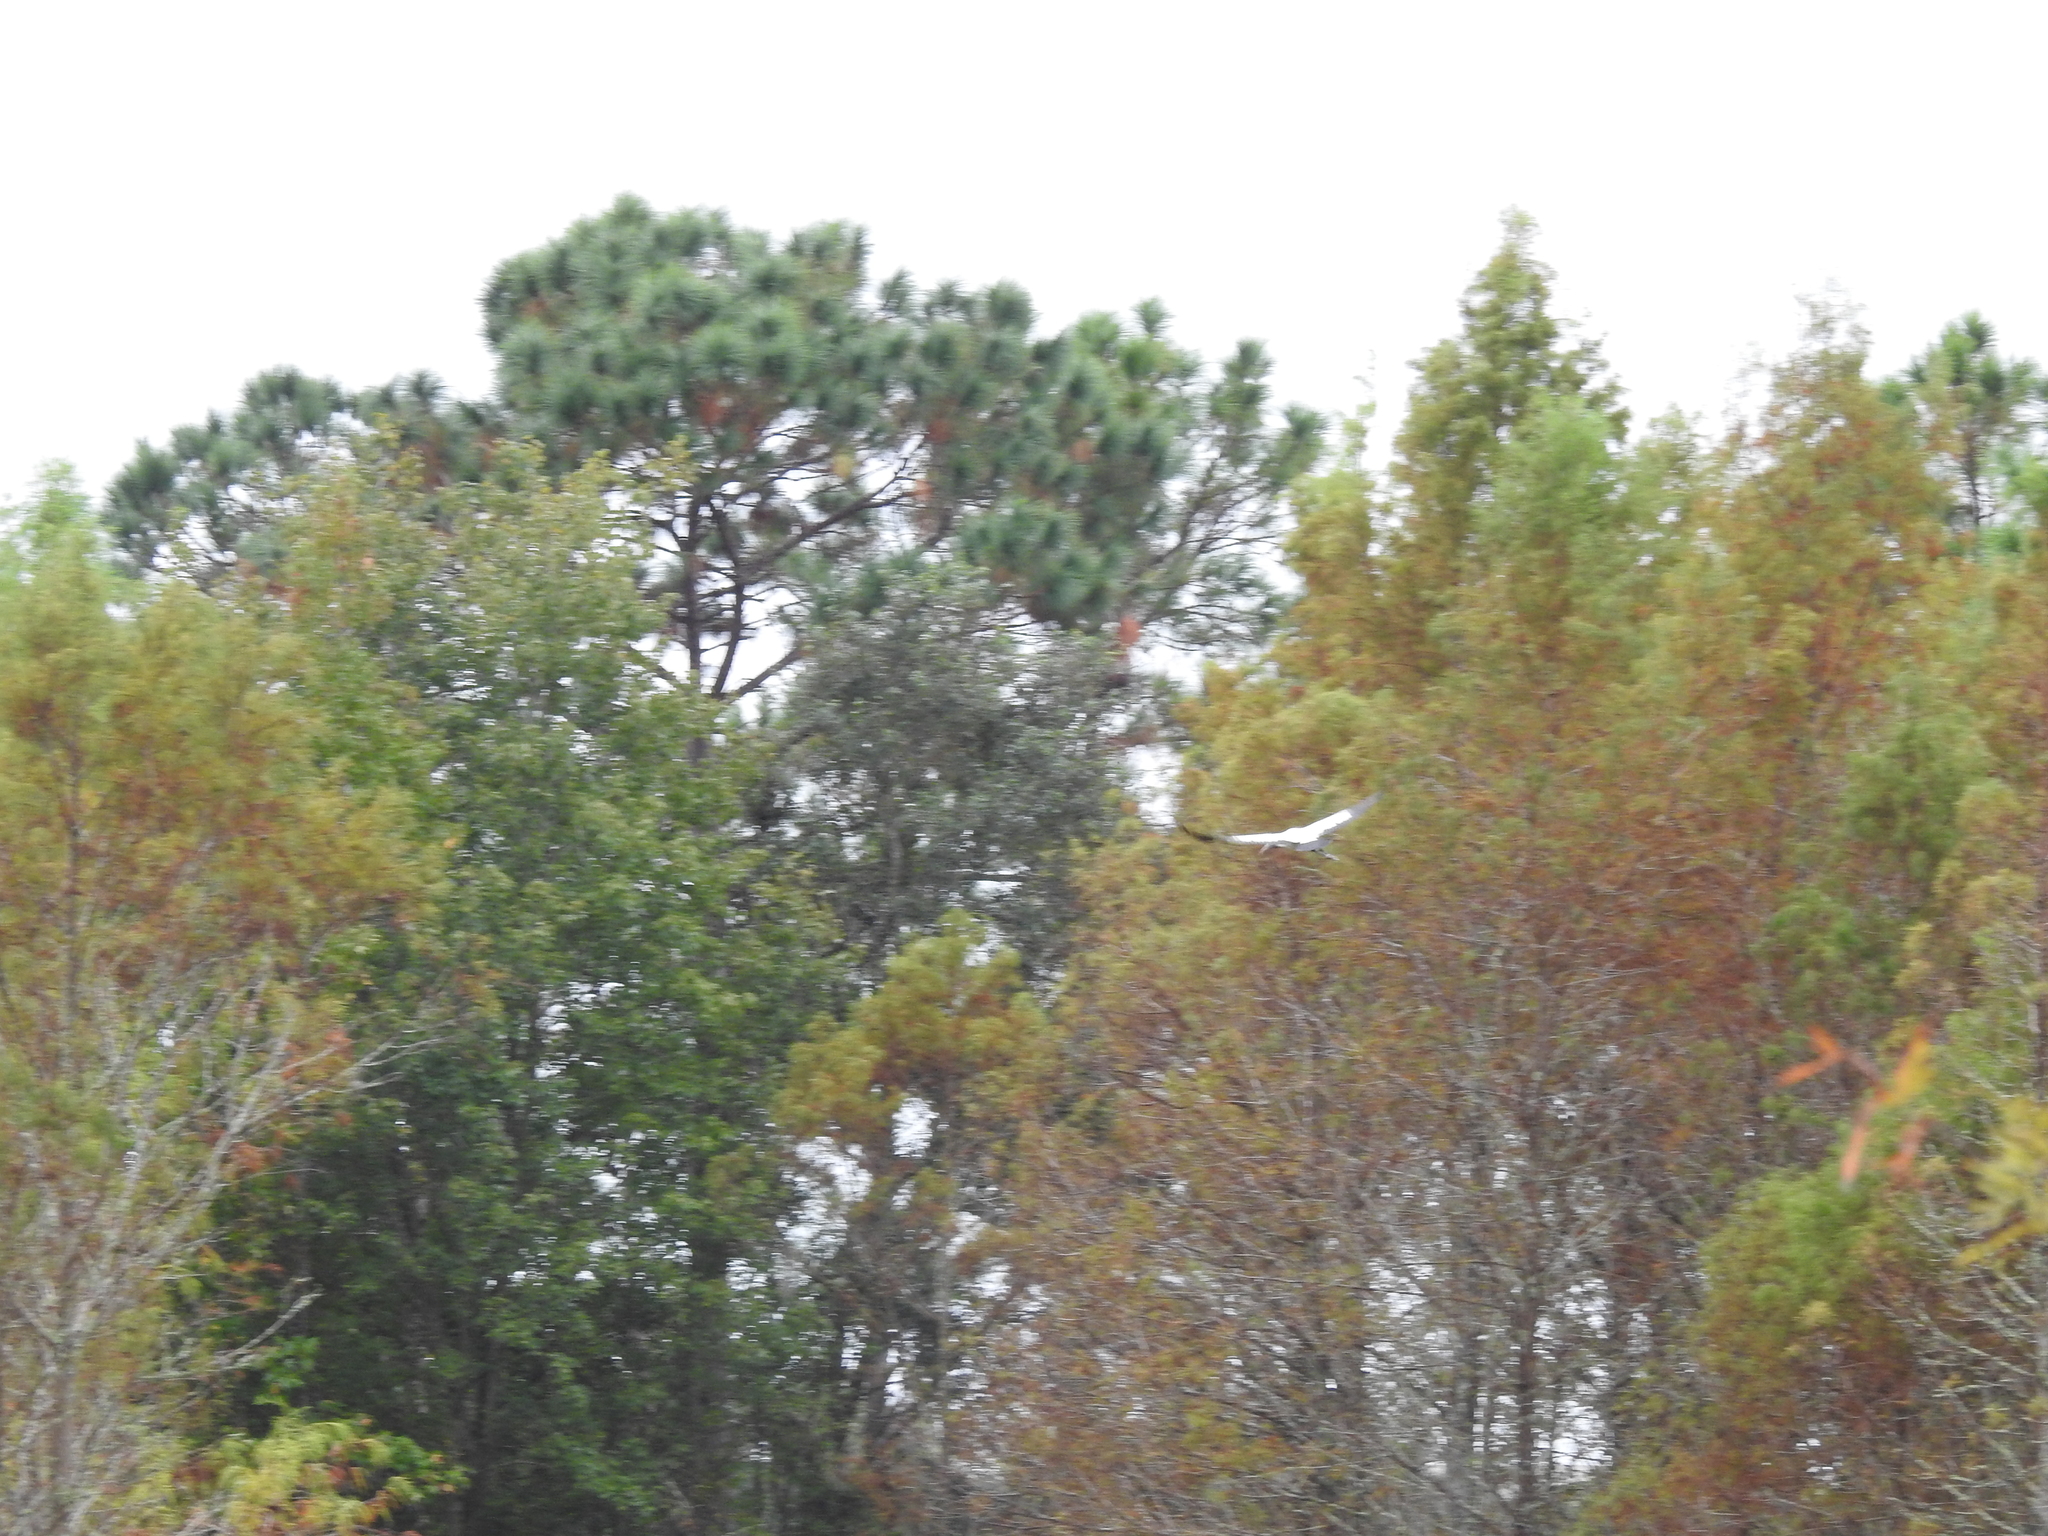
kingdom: Animalia
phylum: Chordata
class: Aves
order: Ciconiiformes
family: Ciconiidae
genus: Mycteria
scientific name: Mycteria americana
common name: Wood stork
